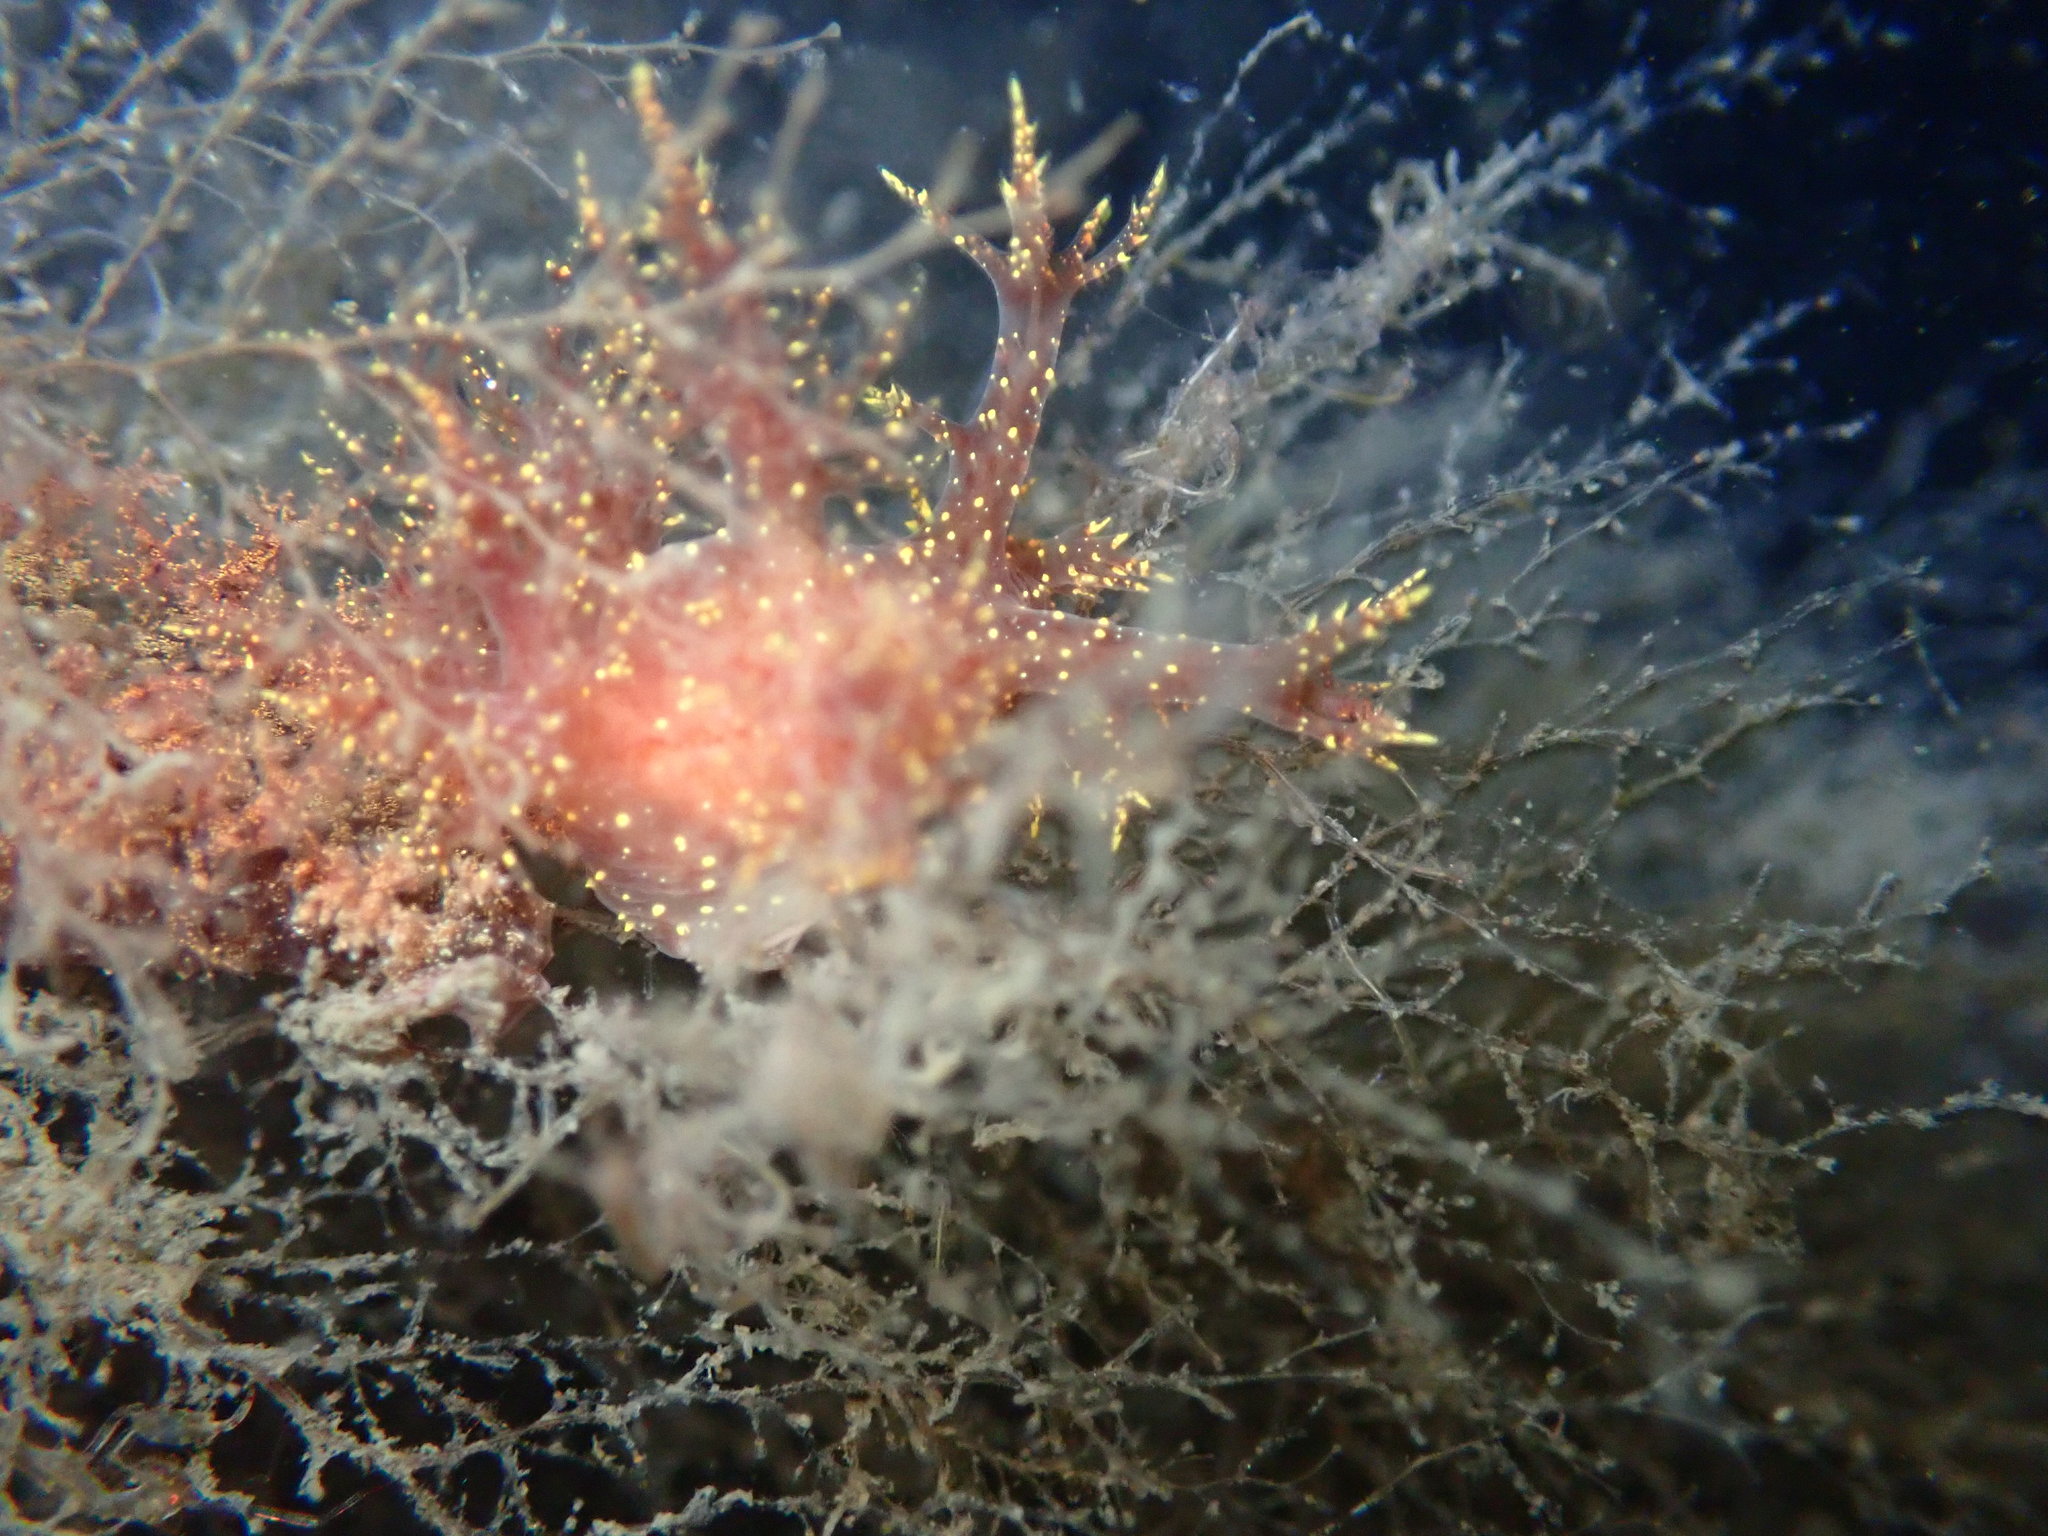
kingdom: Animalia
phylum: Mollusca
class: Gastropoda
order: Nudibranchia
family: Dendronotidae
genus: Dendronotus
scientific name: Dendronotus venustus
